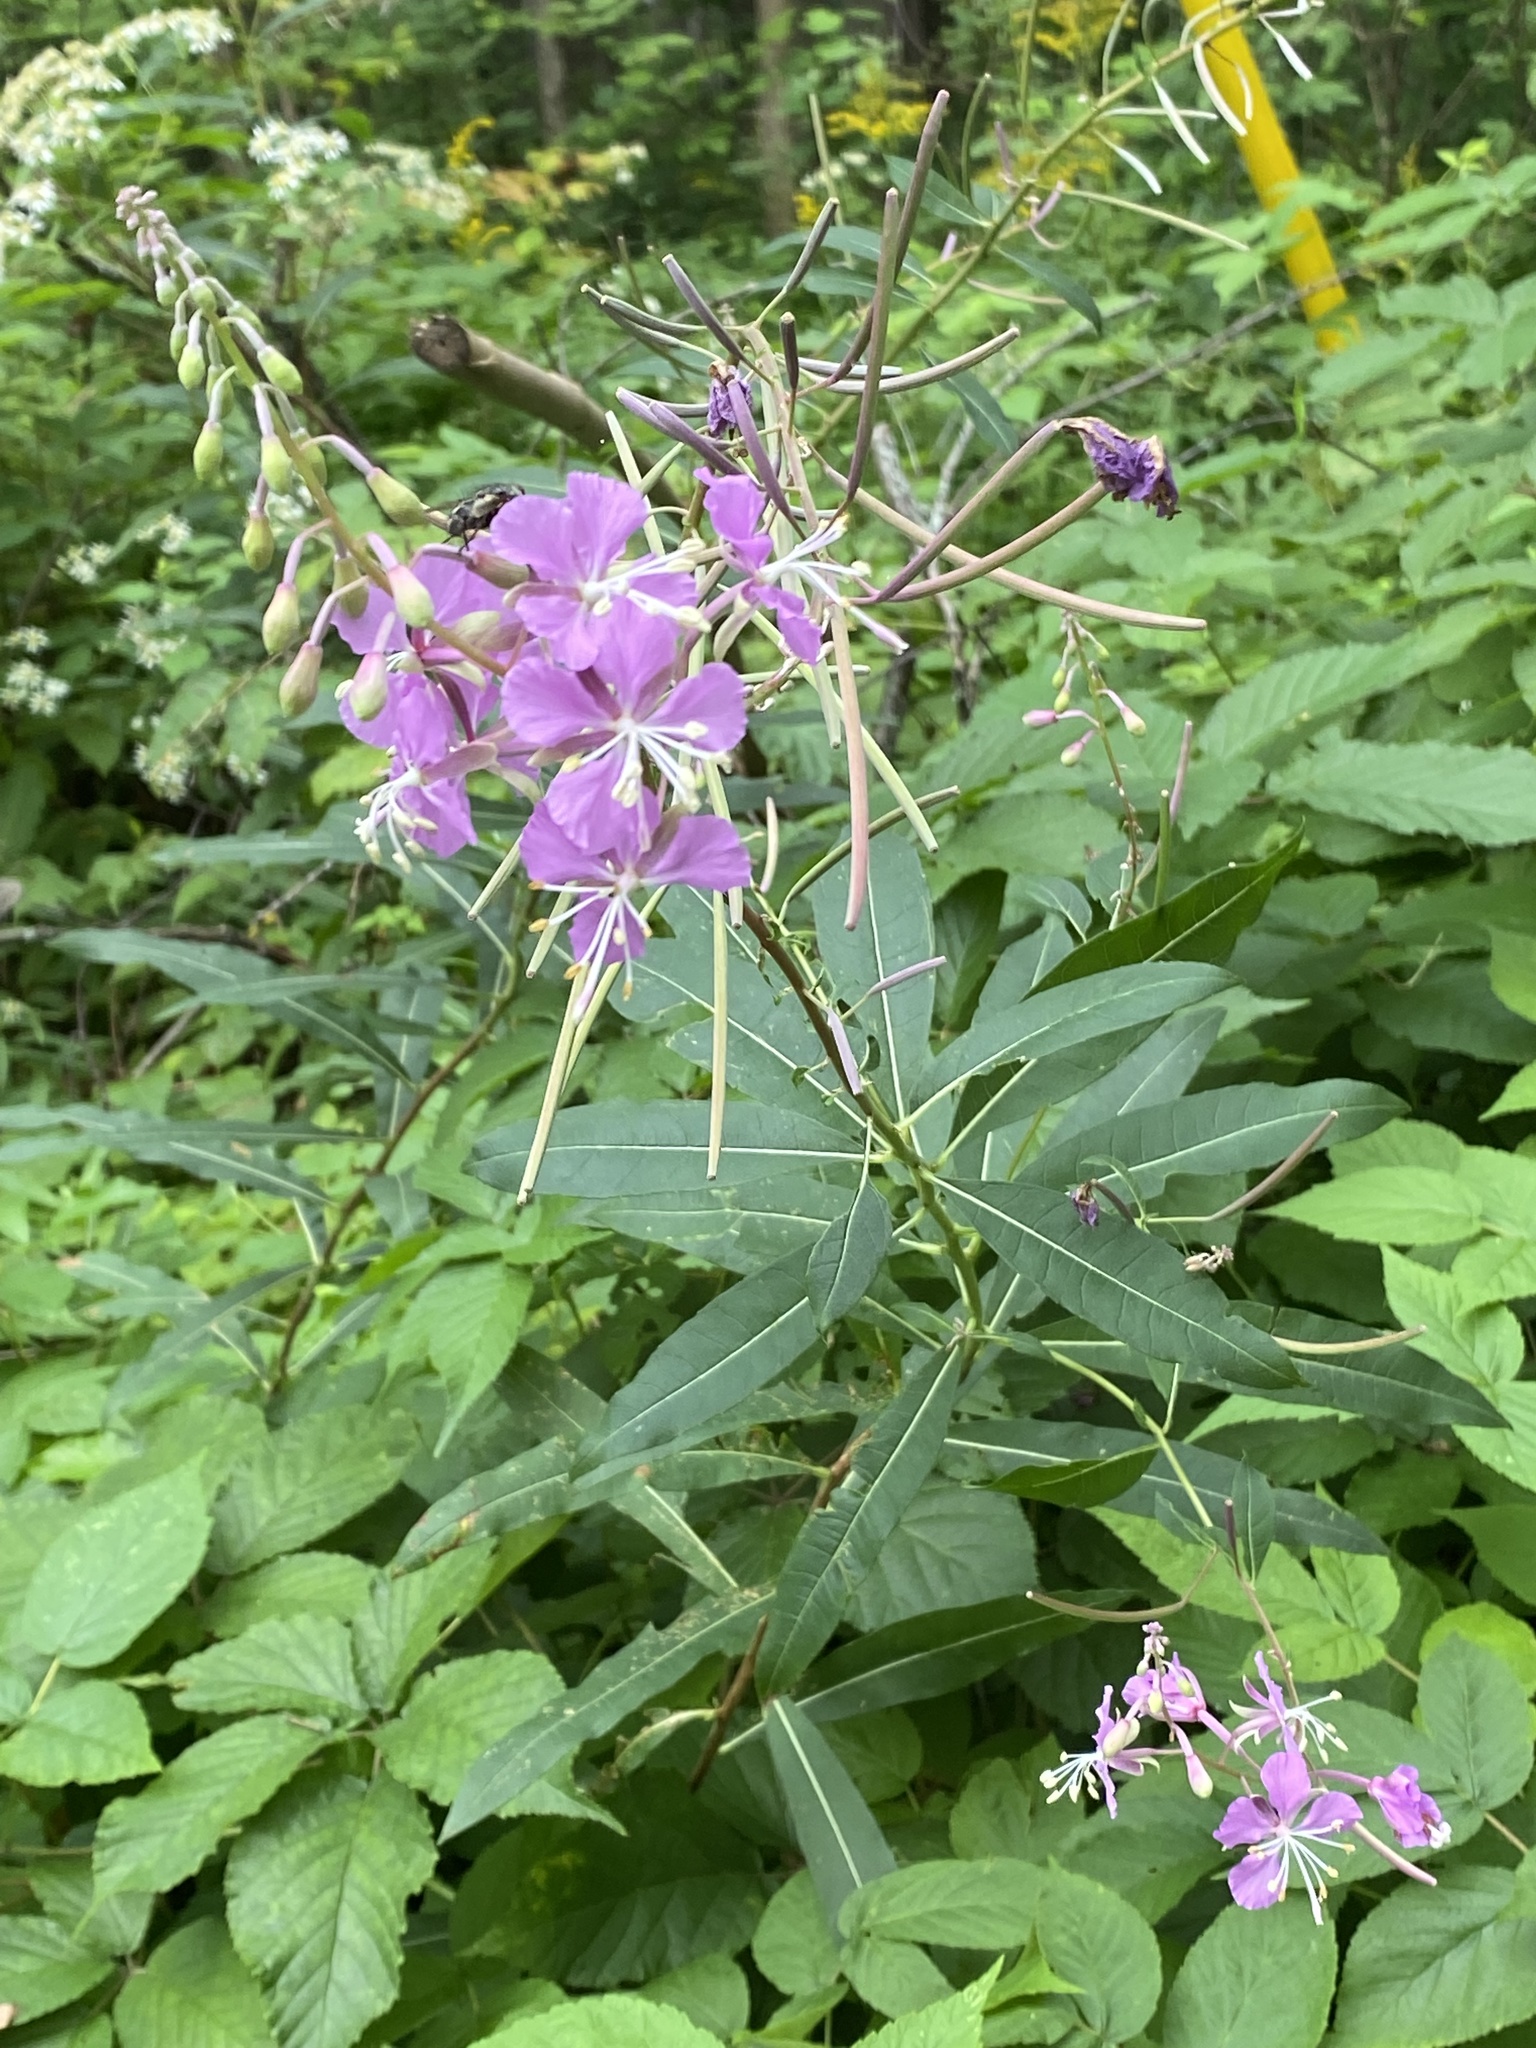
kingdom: Plantae
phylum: Tracheophyta
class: Magnoliopsida
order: Myrtales
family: Onagraceae
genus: Chamaenerion
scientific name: Chamaenerion angustifolium
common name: Fireweed
